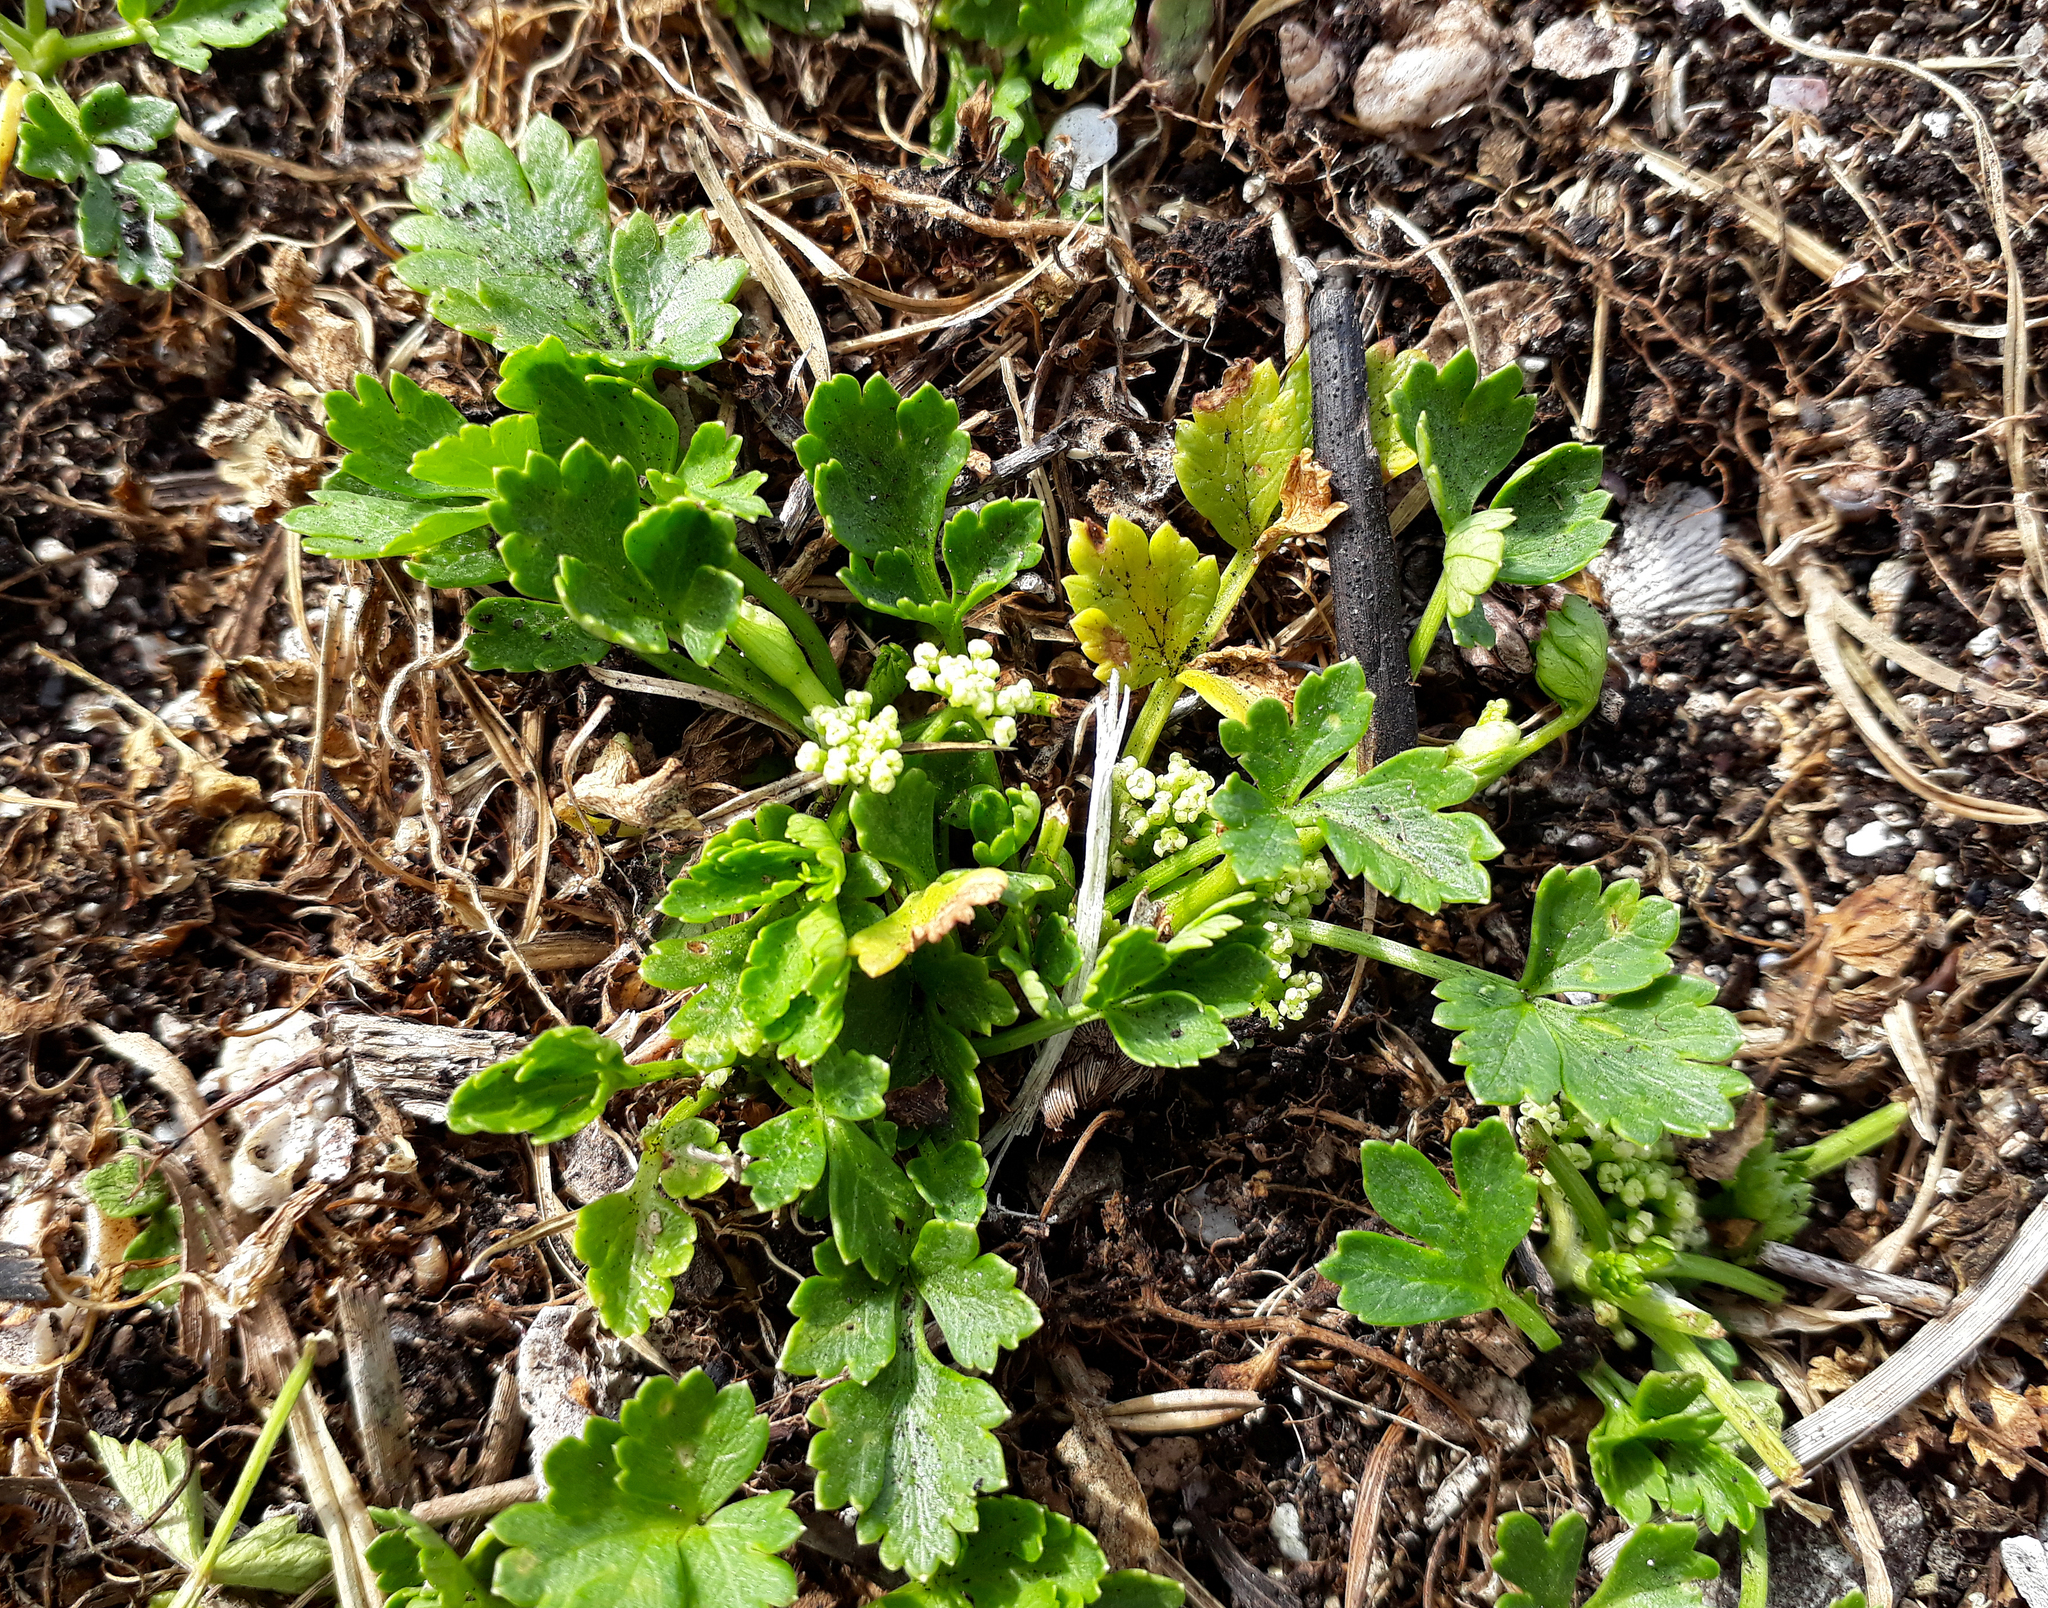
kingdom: Plantae
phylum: Tracheophyta
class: Magnoliopsida
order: Apiales
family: Apiaceae
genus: Apium
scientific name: Apium prostratum
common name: Prostrate marshwort
